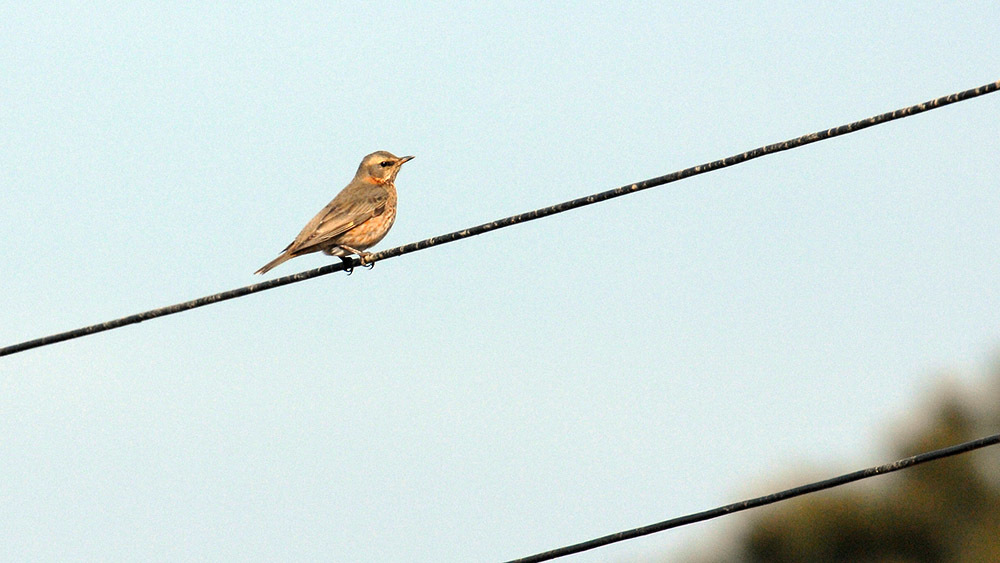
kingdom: Animalia
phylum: Chordata
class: Aves
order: Passeriformes
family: Turdidae
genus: Turdus
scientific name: Turdus naumanni
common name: Naumann's thrush
